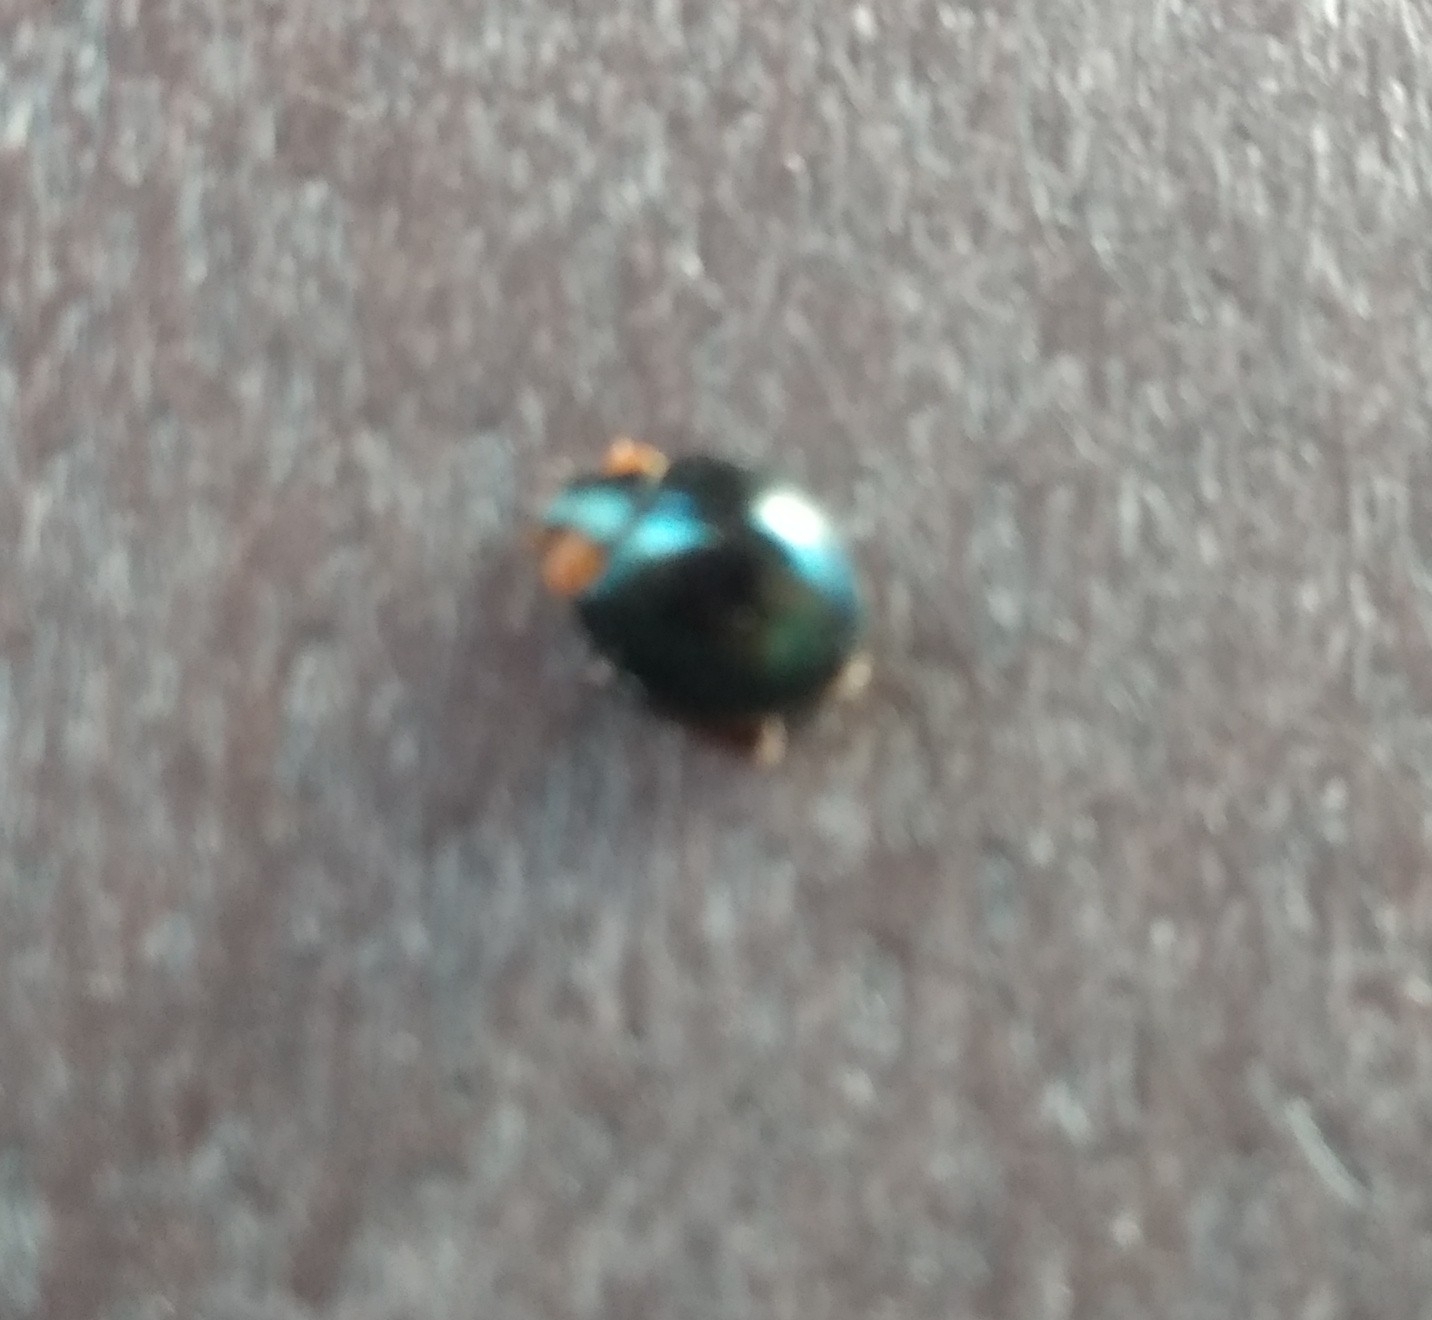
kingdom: Animalia
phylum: Arthropoda
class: Insecta
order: Coleoptera
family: Coccinellidae
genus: Curinus
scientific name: Curinus coeruleus
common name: Ladybird beetle
